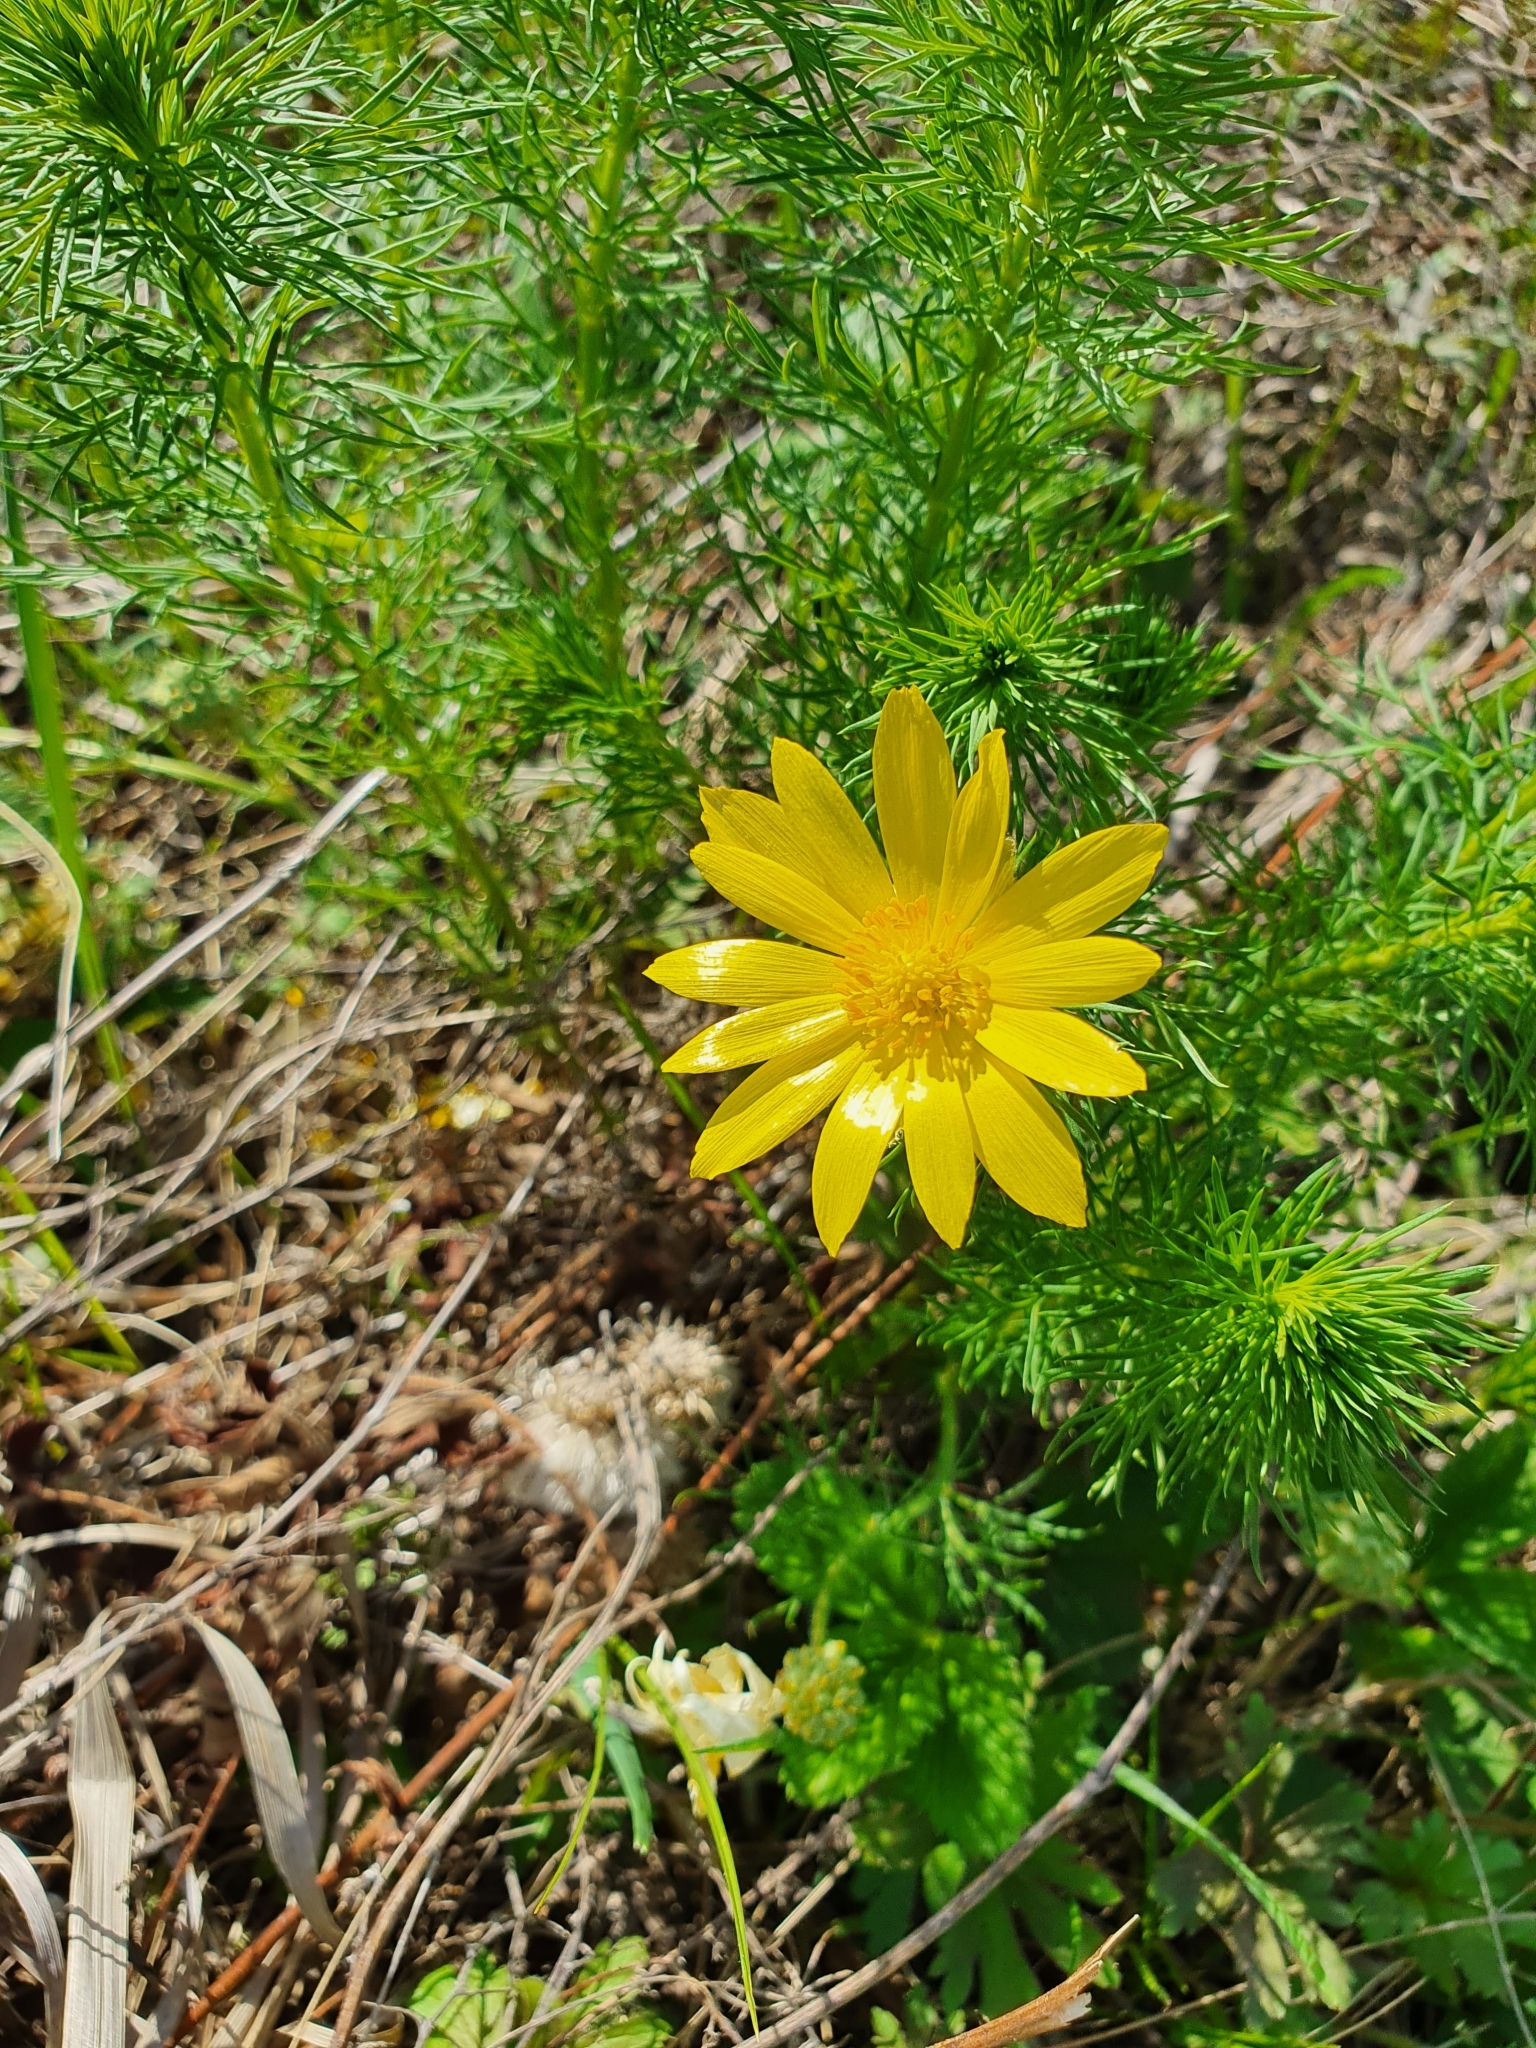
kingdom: Plantae
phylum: Tracheophyta
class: Magnoliopsida
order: Ranunculales
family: Ranunculaceae
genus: Adonis
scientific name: Adonis vernalis
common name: Yellow pheasants-eye
